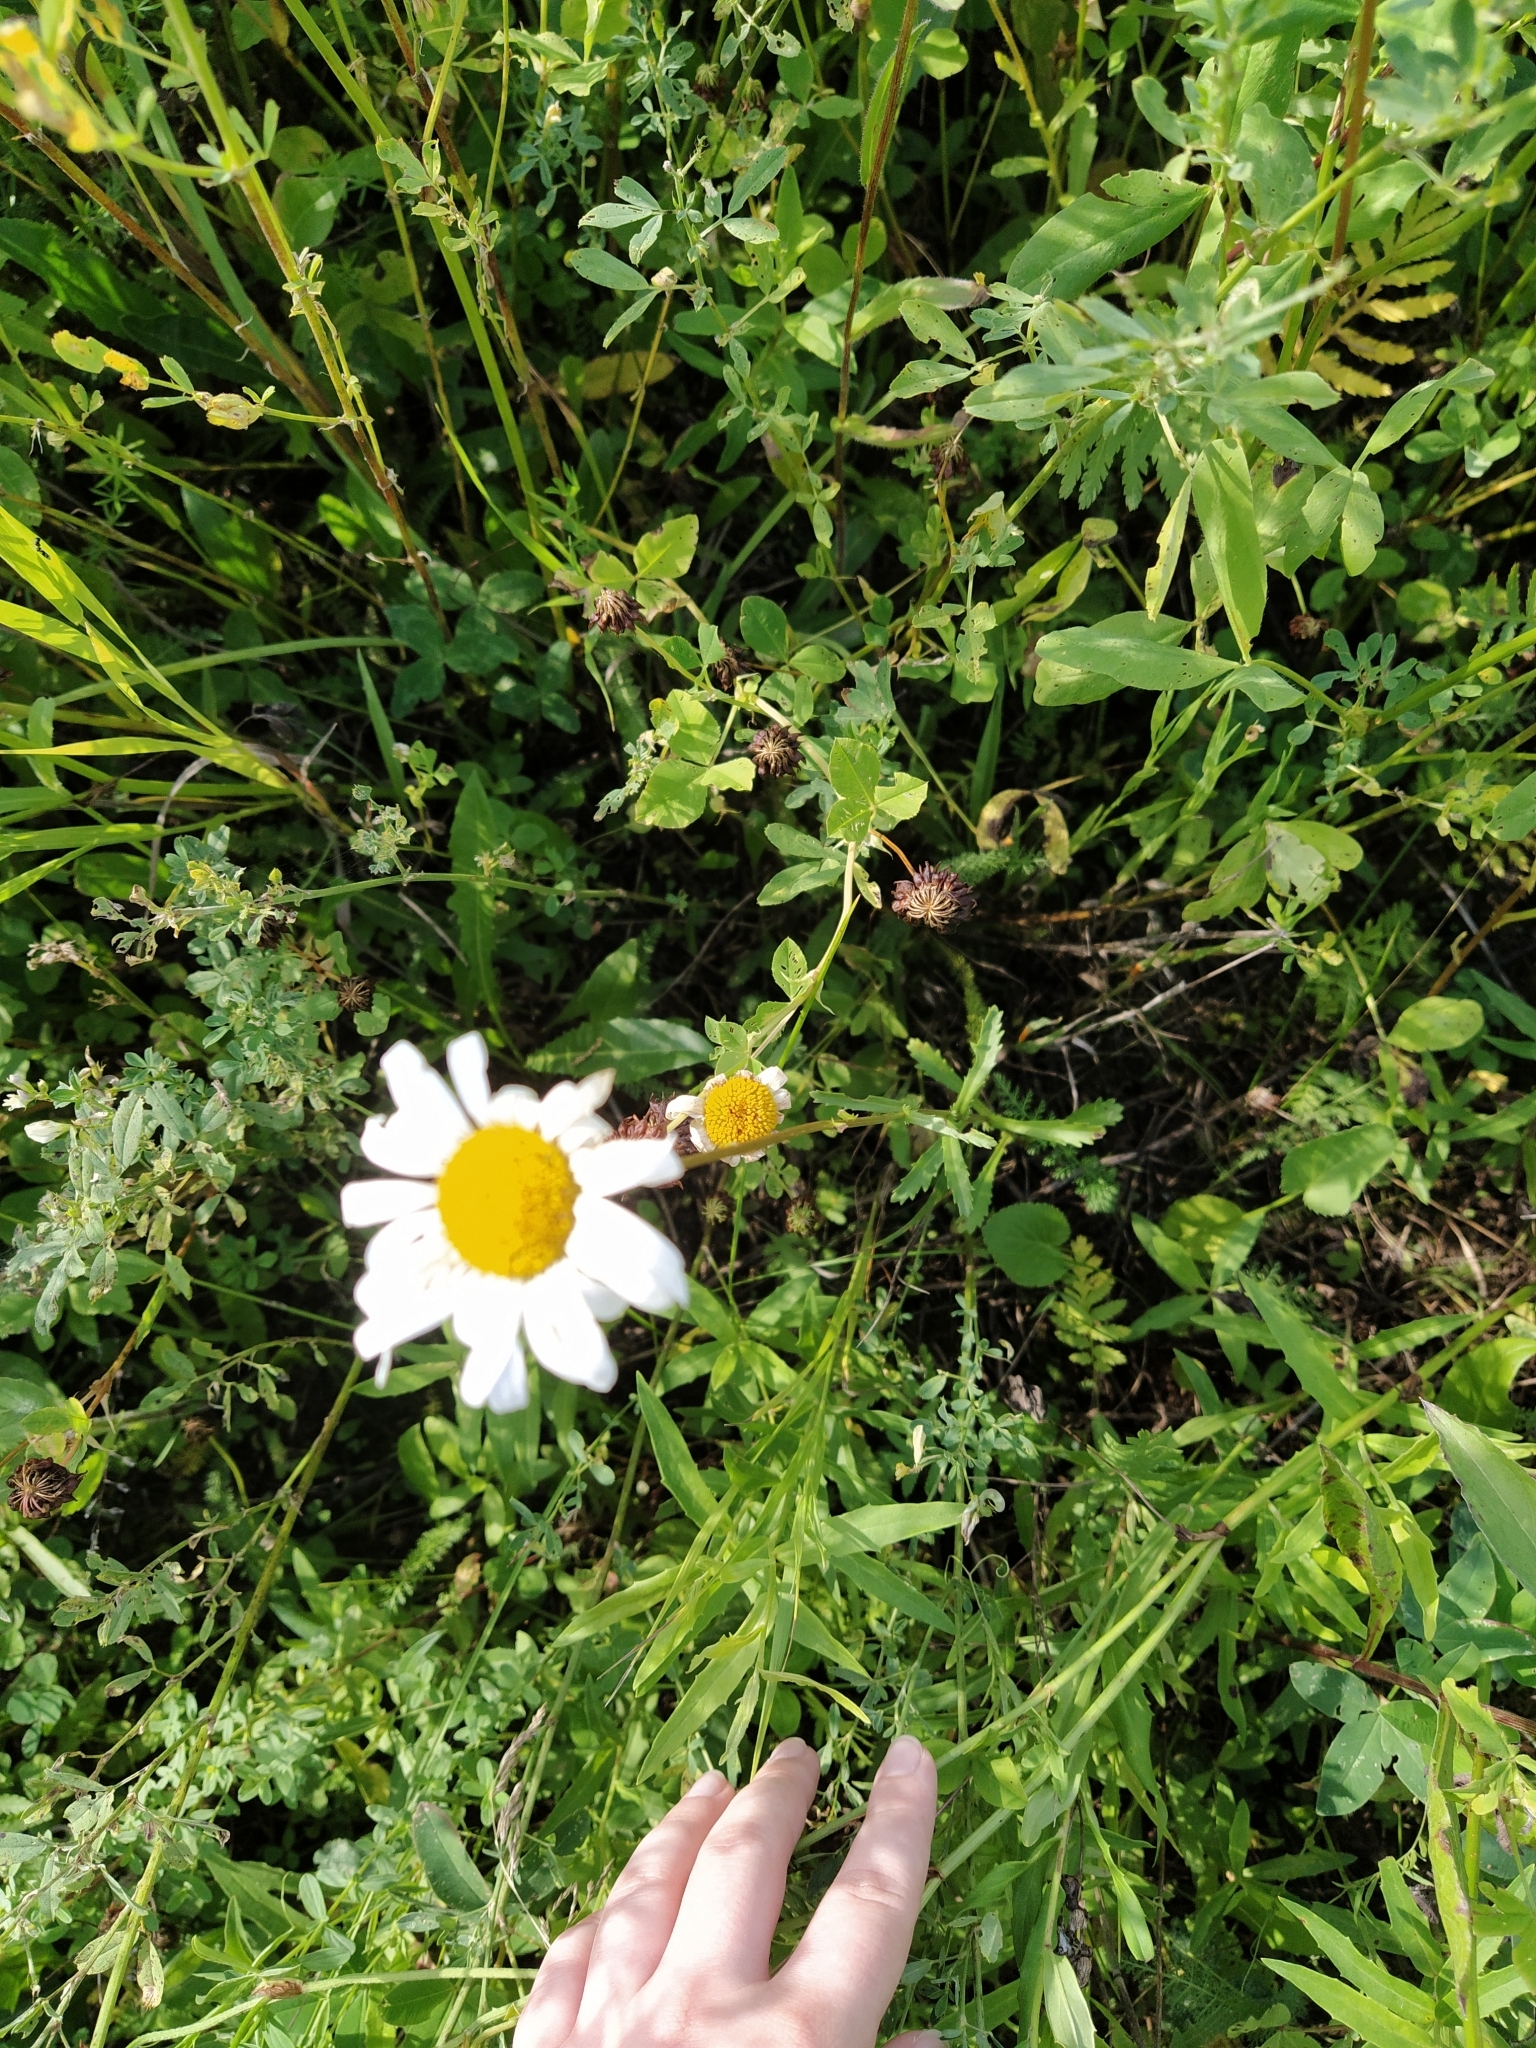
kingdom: Plantae
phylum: Tracheophyta
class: Magnoliopsida
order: Asterales
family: Asteraceae
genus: Leucanthemum
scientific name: Leucanthemum vulgare
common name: Oxeye daisy
